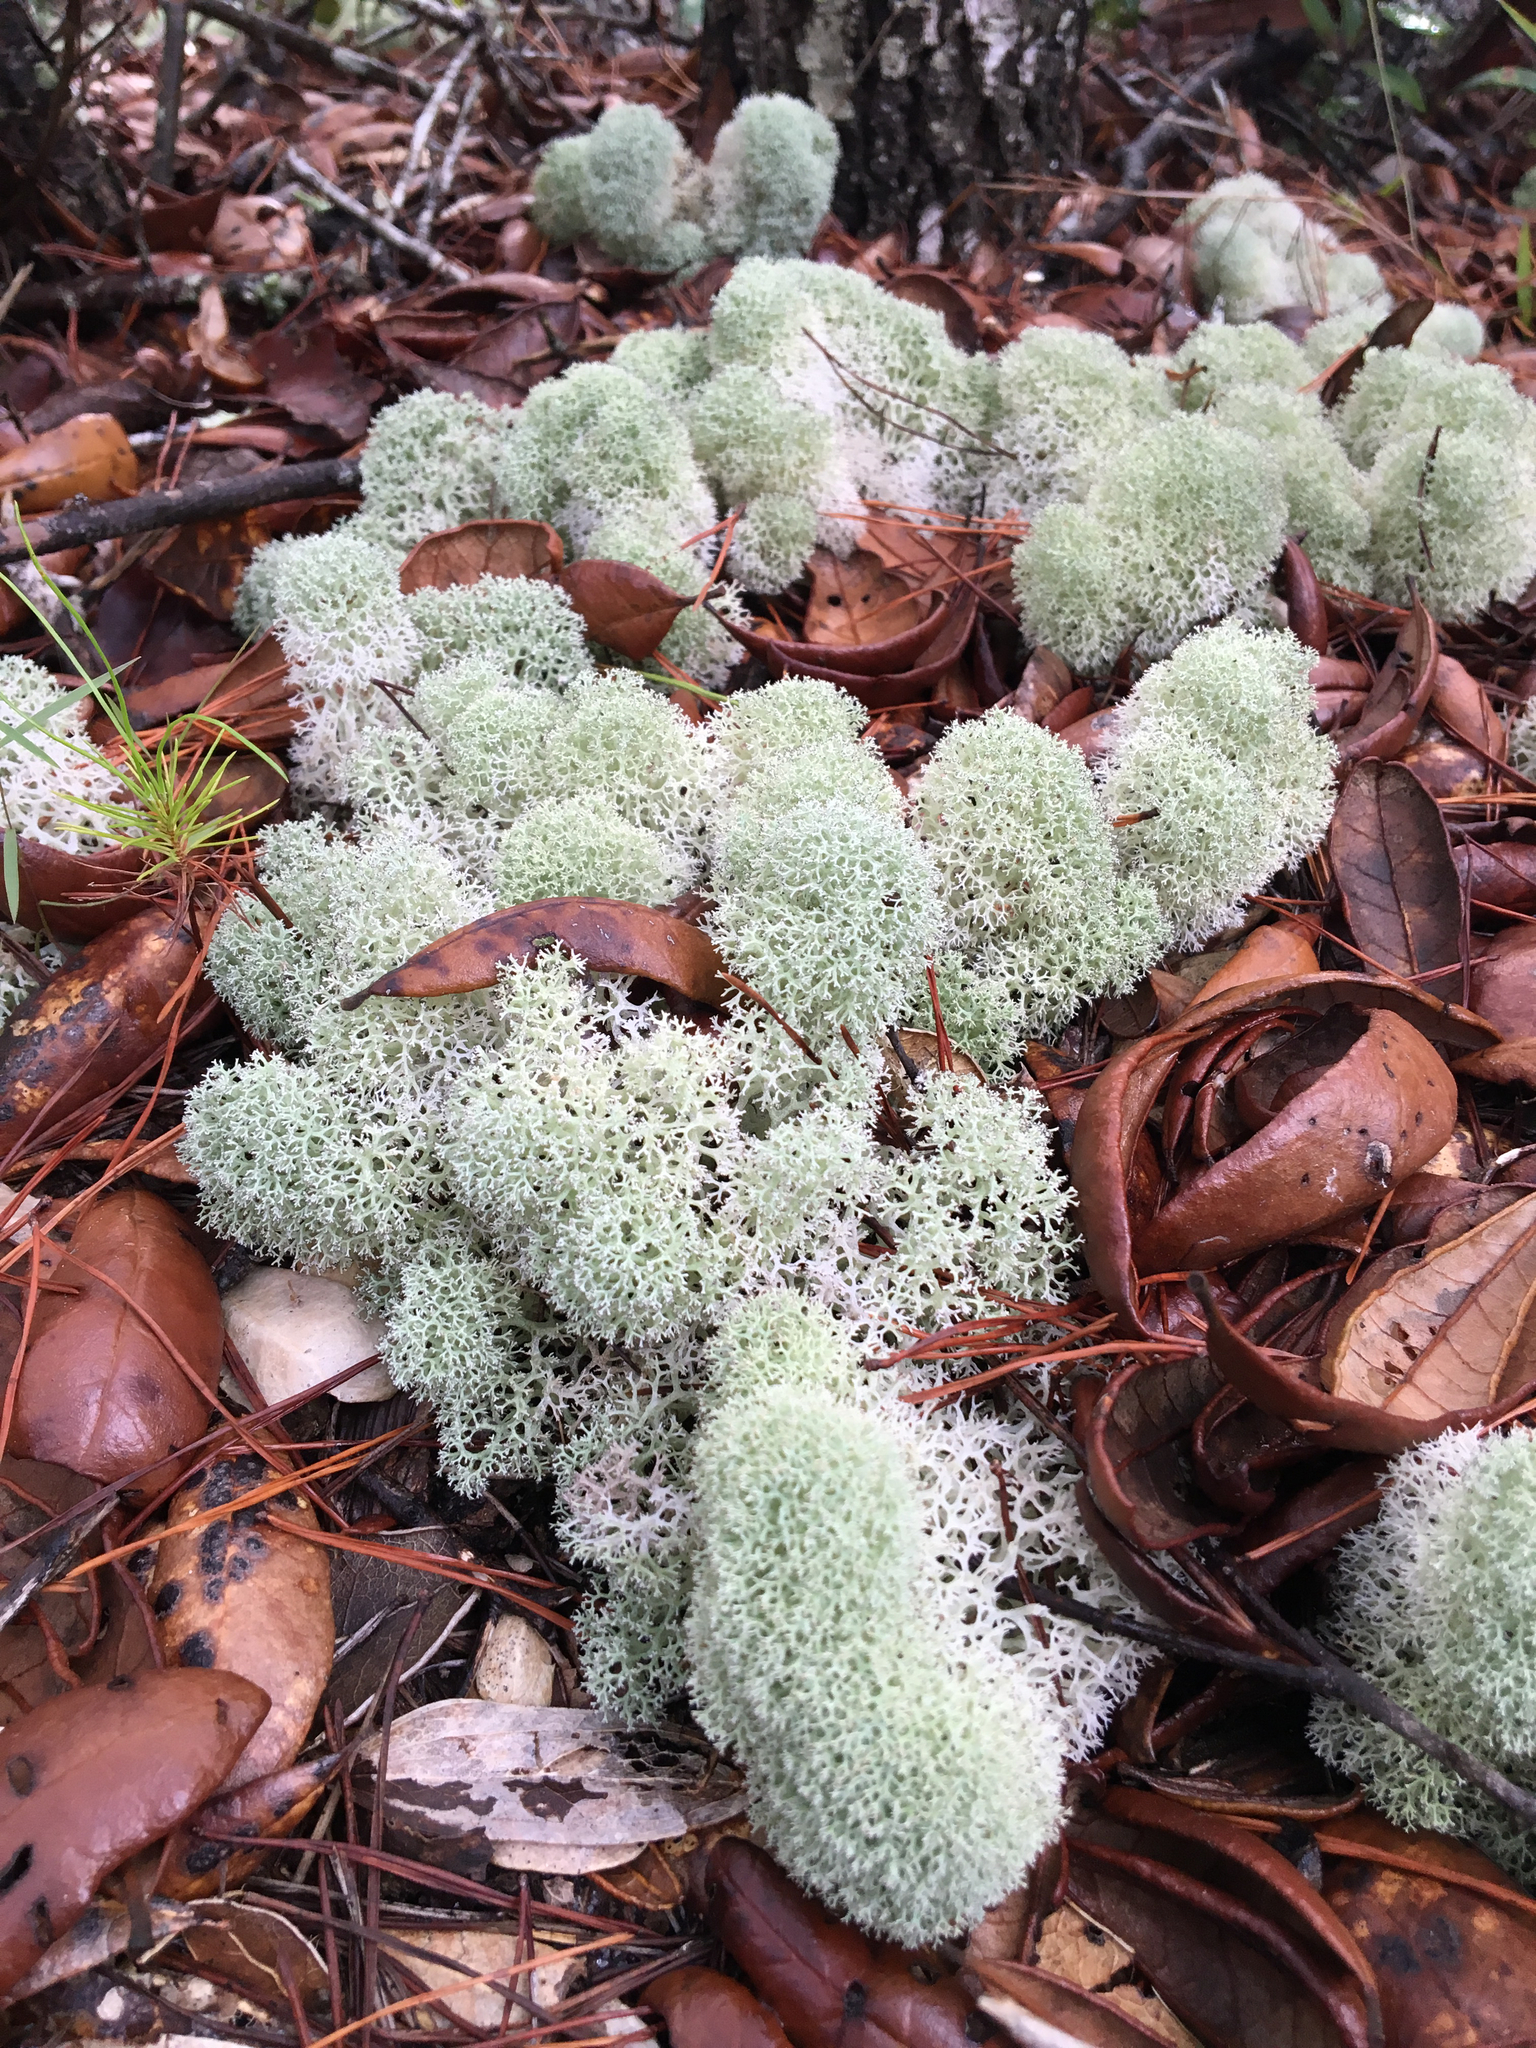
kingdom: Fungi
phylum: Ascomycota
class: Lecanoromycetes
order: Lecanorales
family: Cladoniaceae
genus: Cladonia
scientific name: Cladonia evansii
